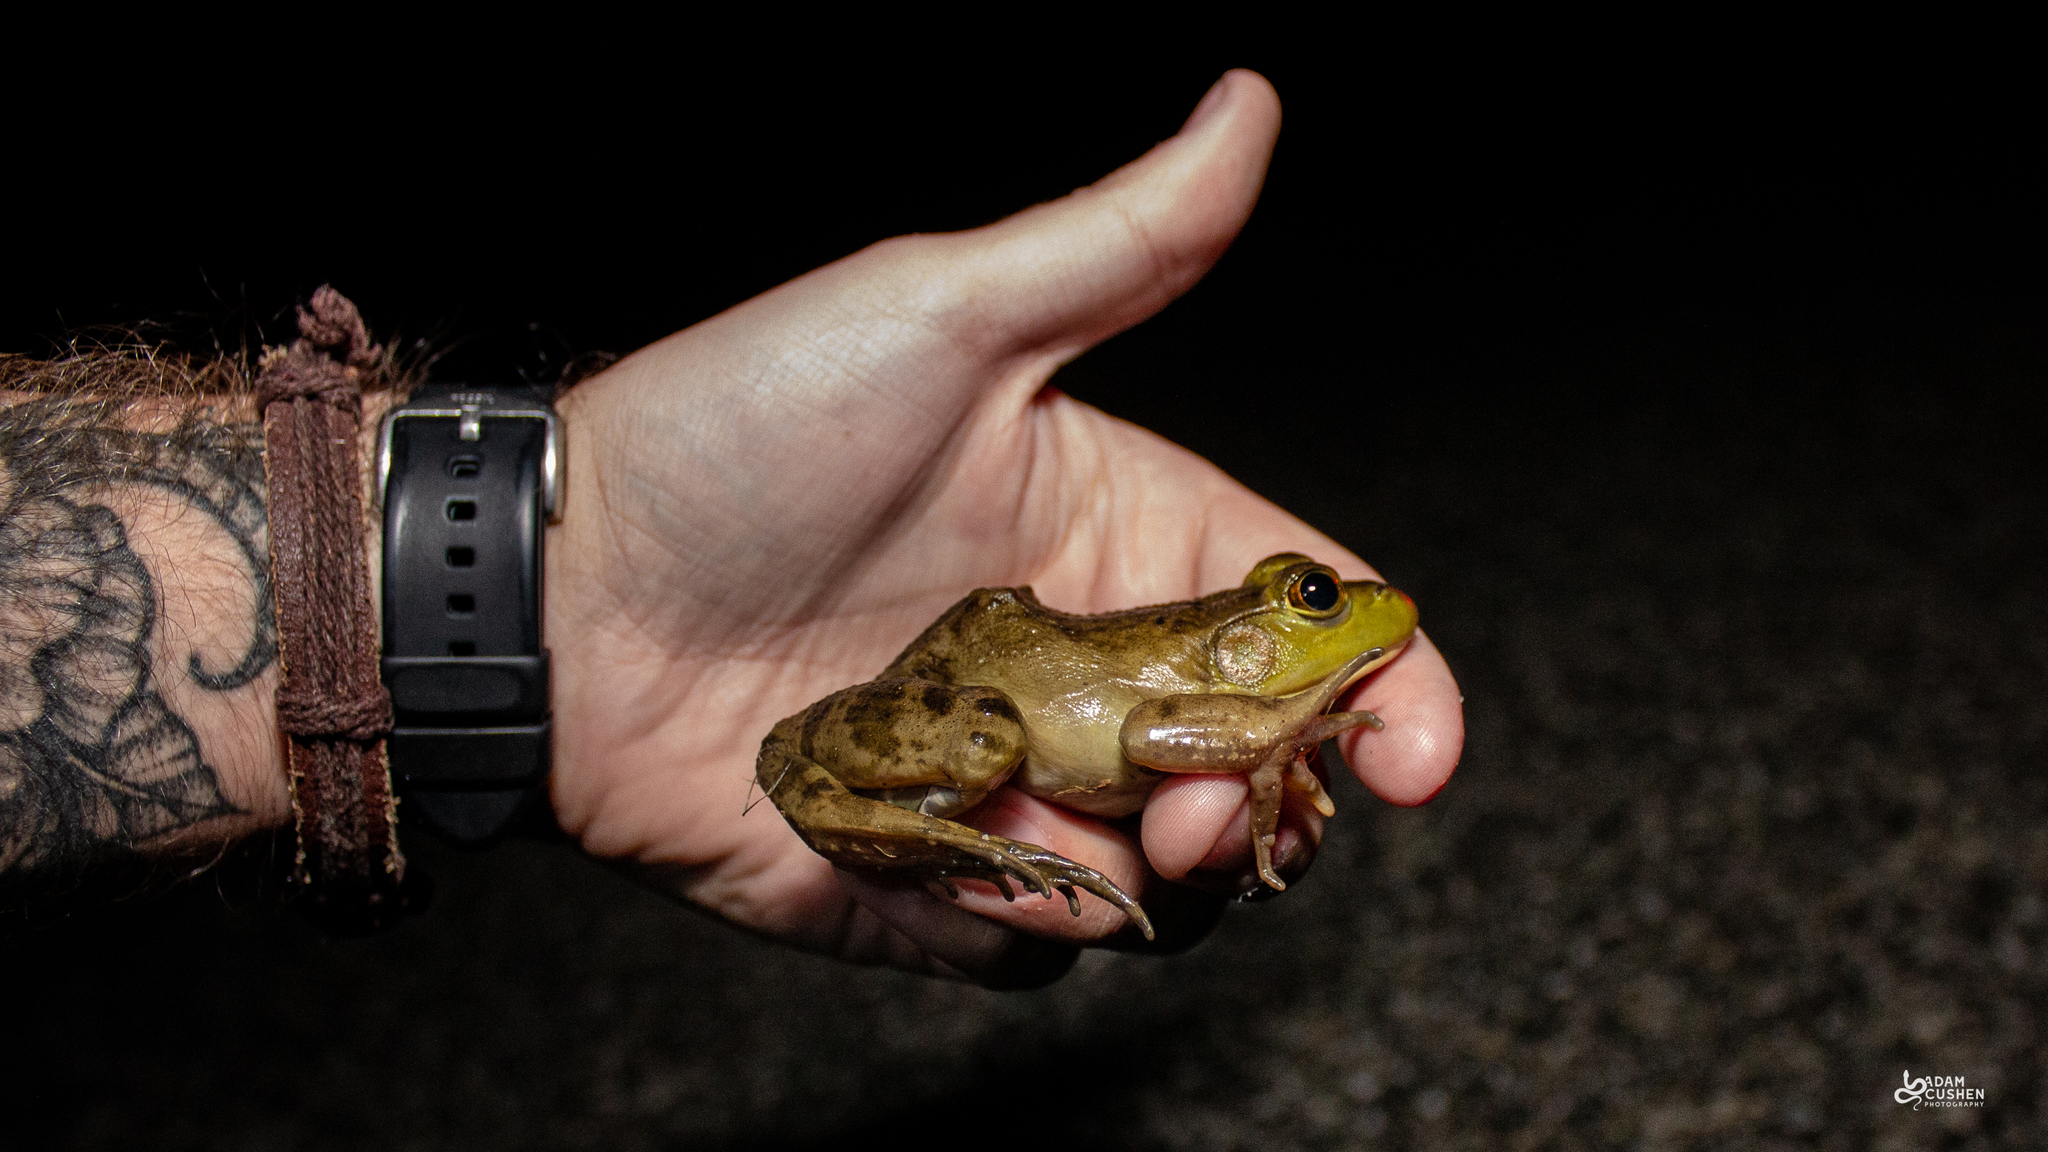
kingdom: Animalia
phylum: Chordata
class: Amphibia
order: Anura
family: Ranidae
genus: Lithobates
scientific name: Lithobates catesbeianus
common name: American bullfrog
